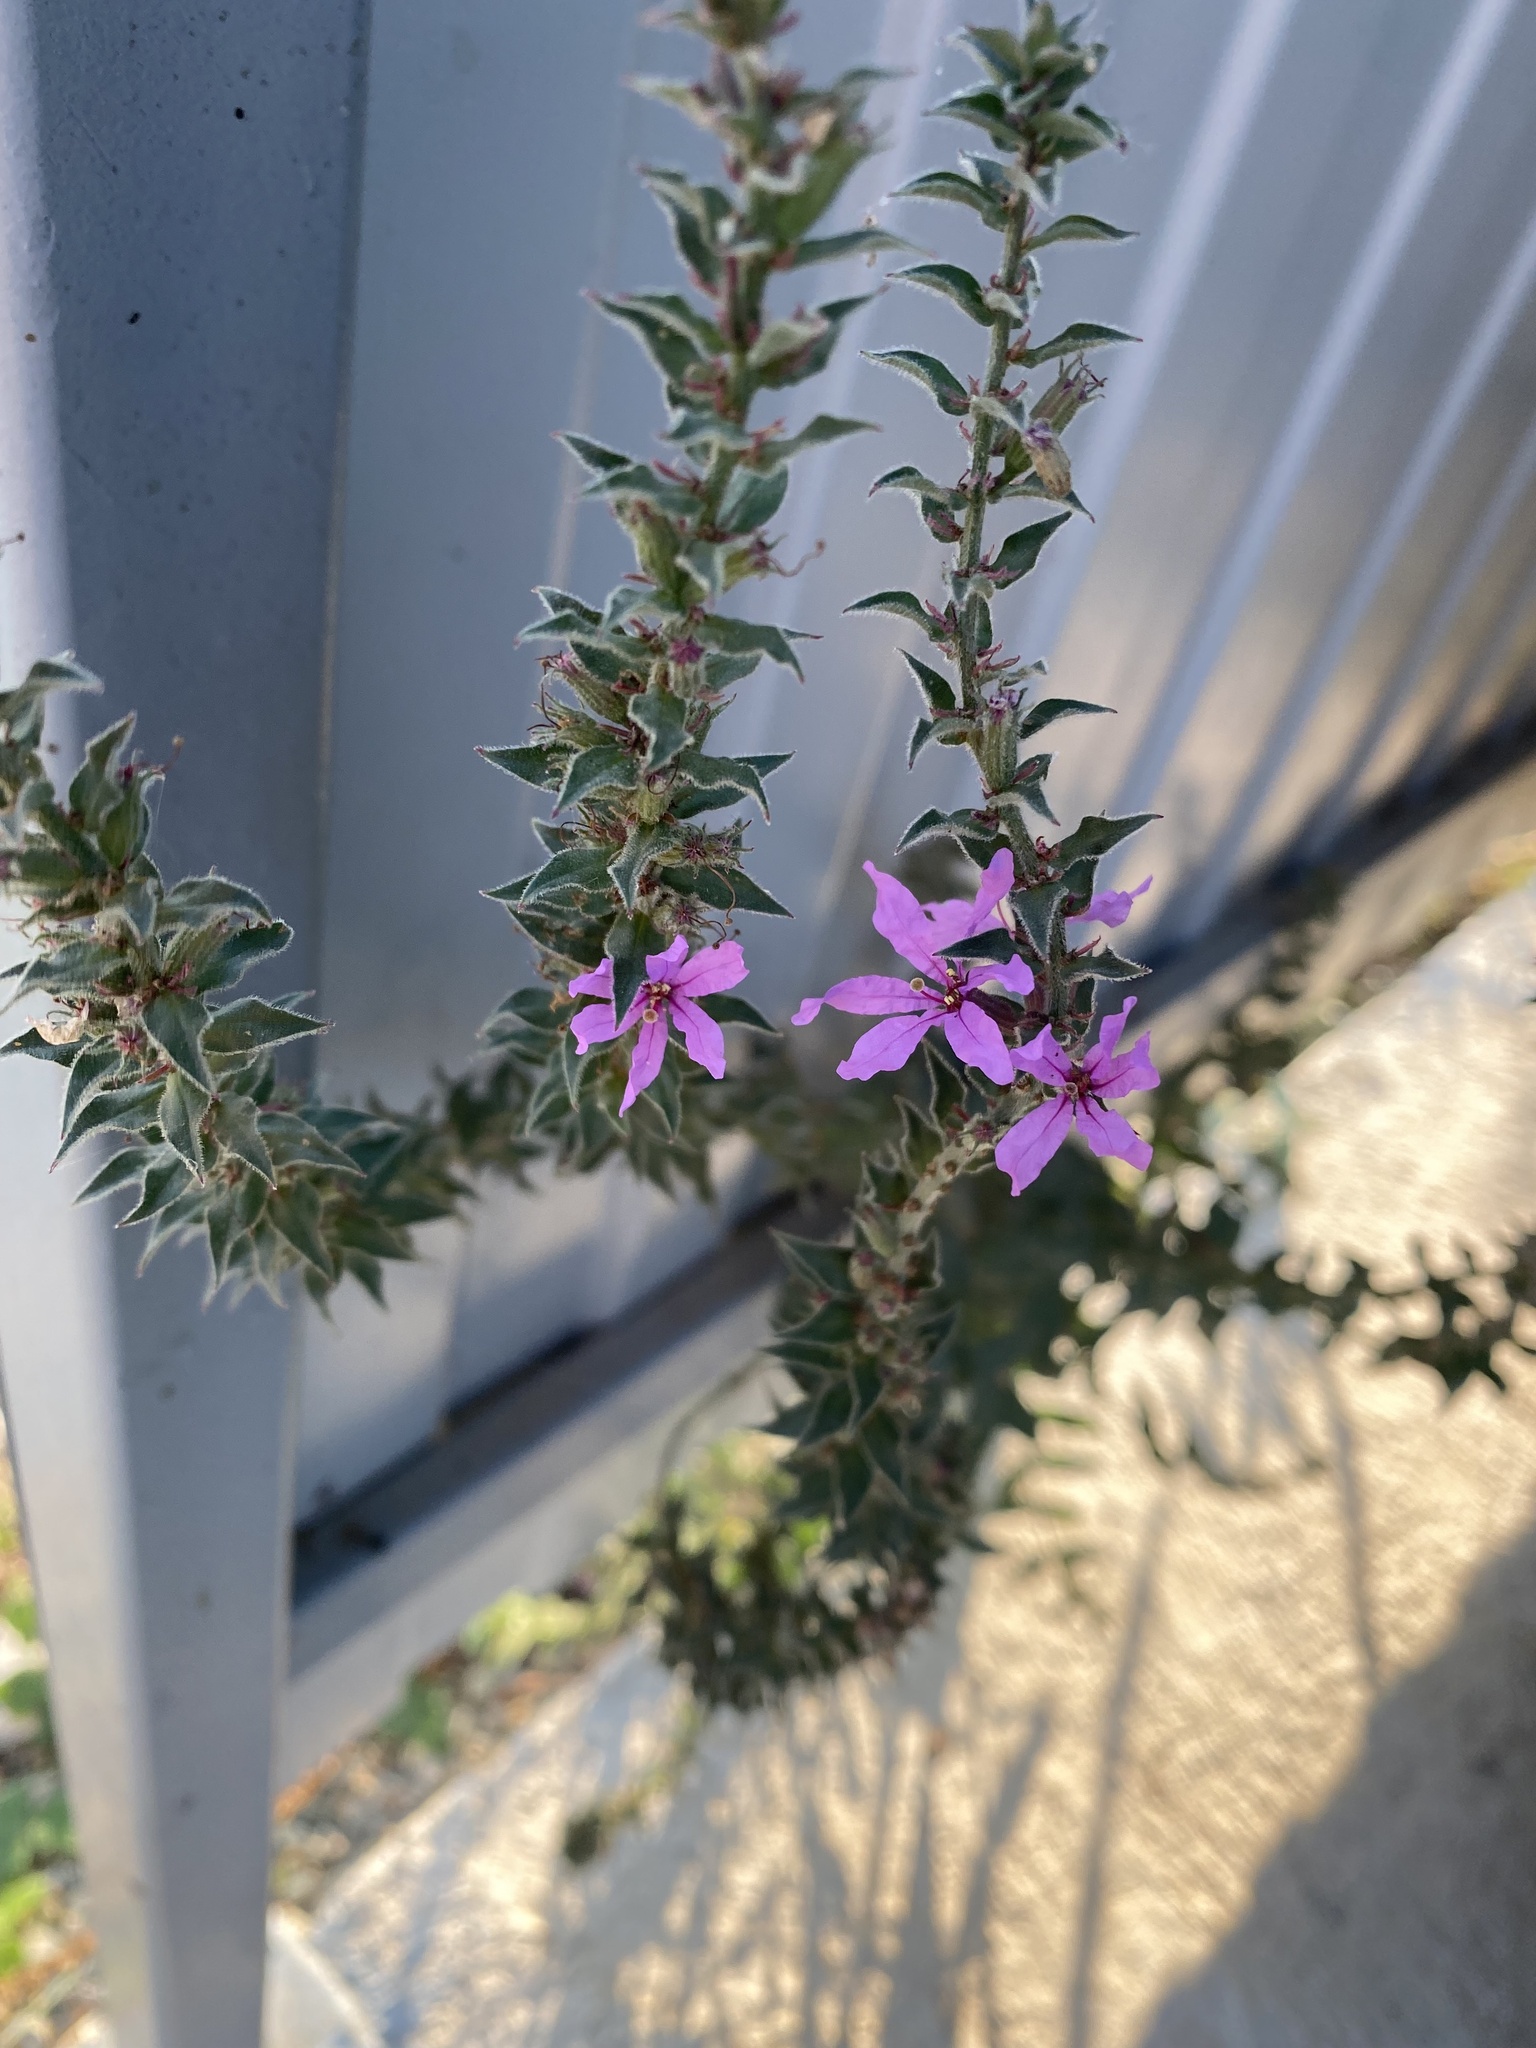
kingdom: Plantae
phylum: Tracheophyta
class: Magnoliopsida
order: Myrtales
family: Lythraceae
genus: Lythrum
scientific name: Lythrum salicaria
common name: Purple loosestrife
